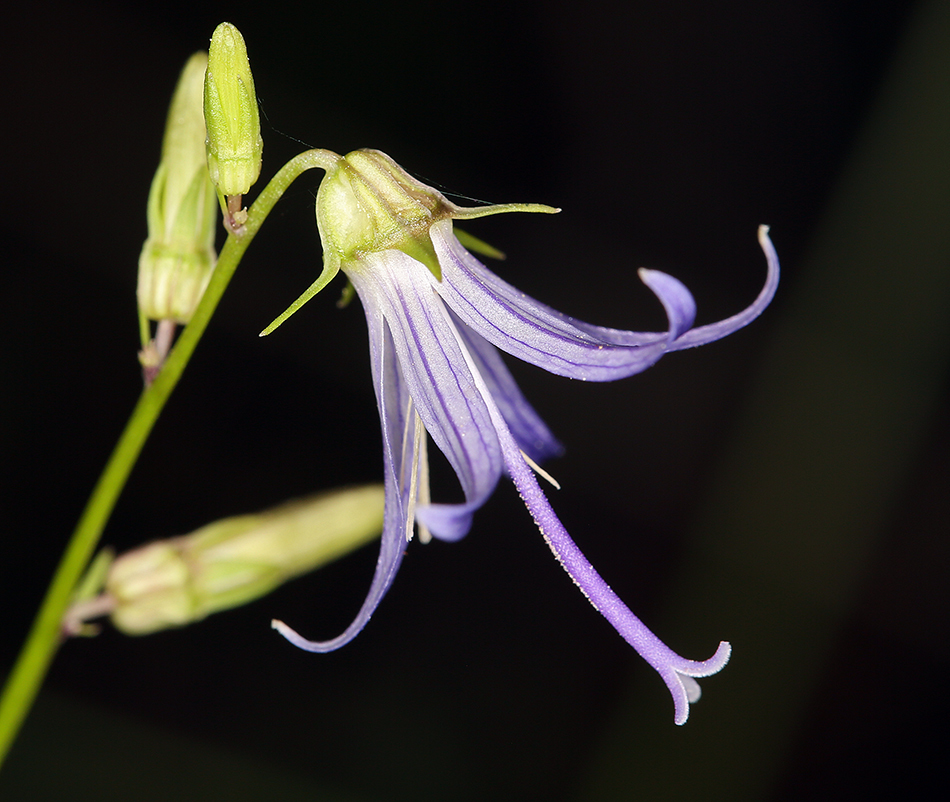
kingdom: Plantae
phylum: Tracheophyta
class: Magnoliopsida
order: Asterales
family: Campanulaceae
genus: Smithiastrum
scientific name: Smithiastrum prenanthoides
